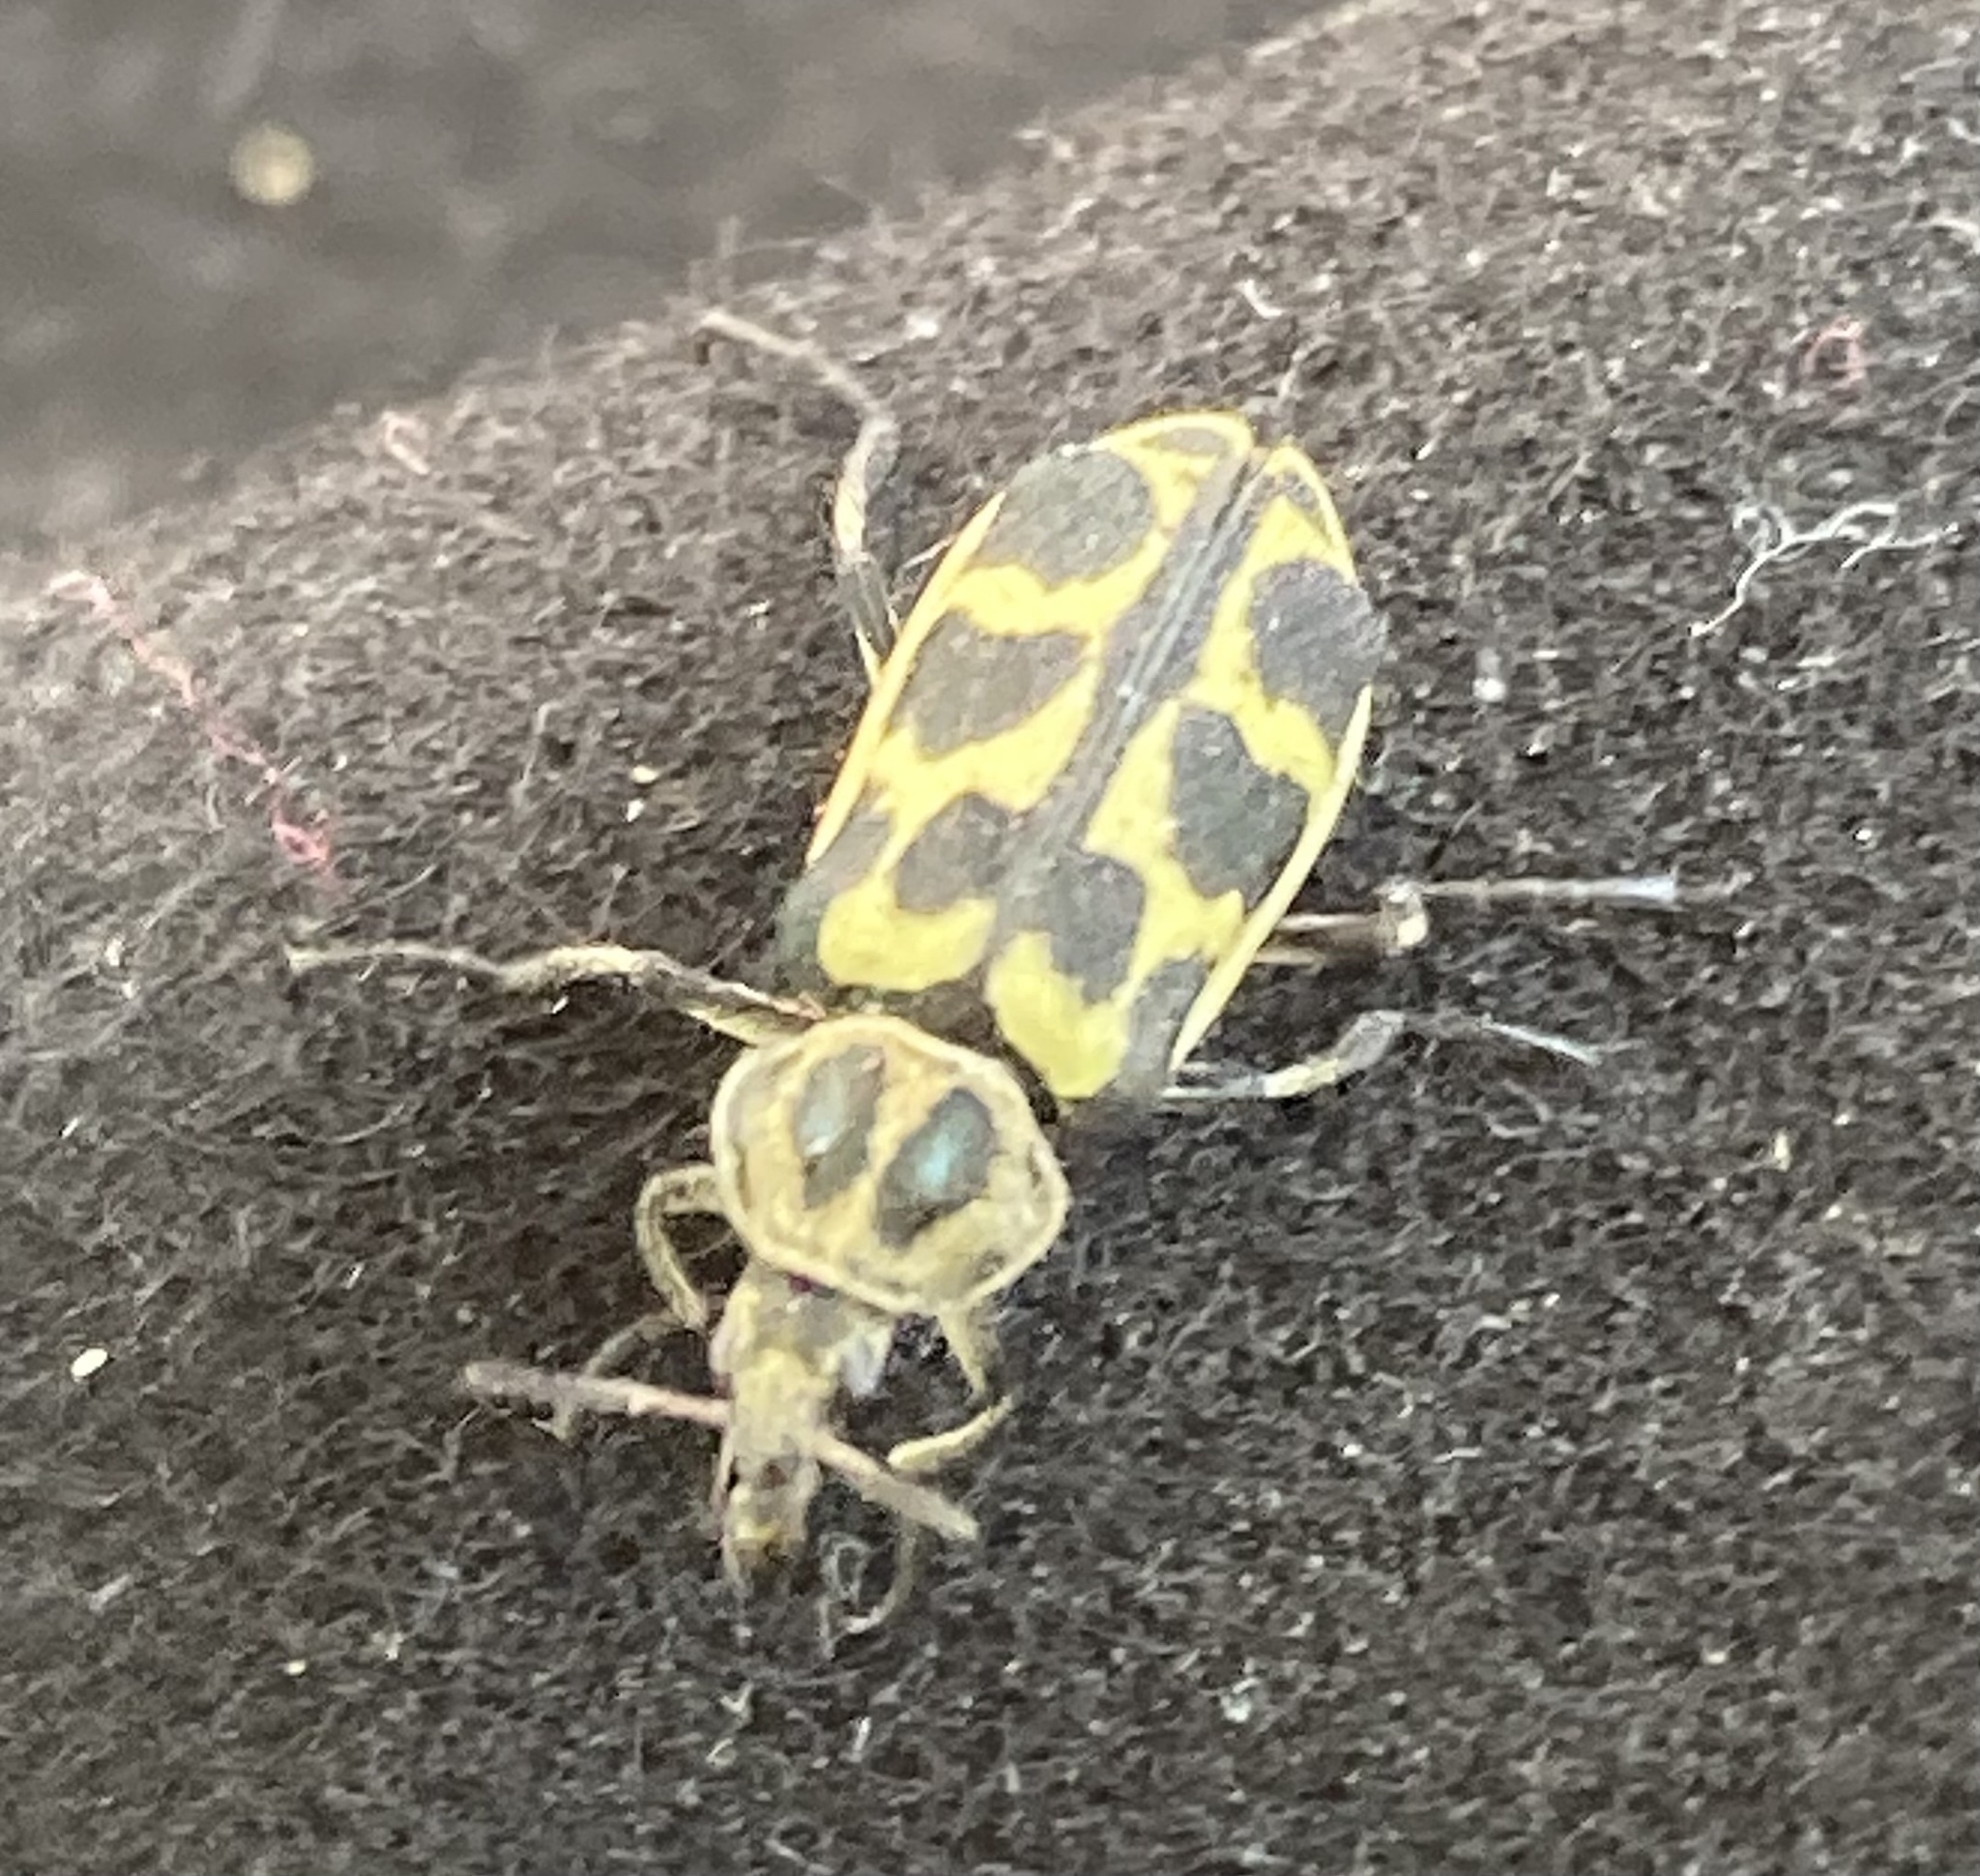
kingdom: Animalia
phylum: Arthropoda
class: Insecta
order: Coleoptera
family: Melyridae
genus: Astylus
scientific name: Astylus atromaculatus
